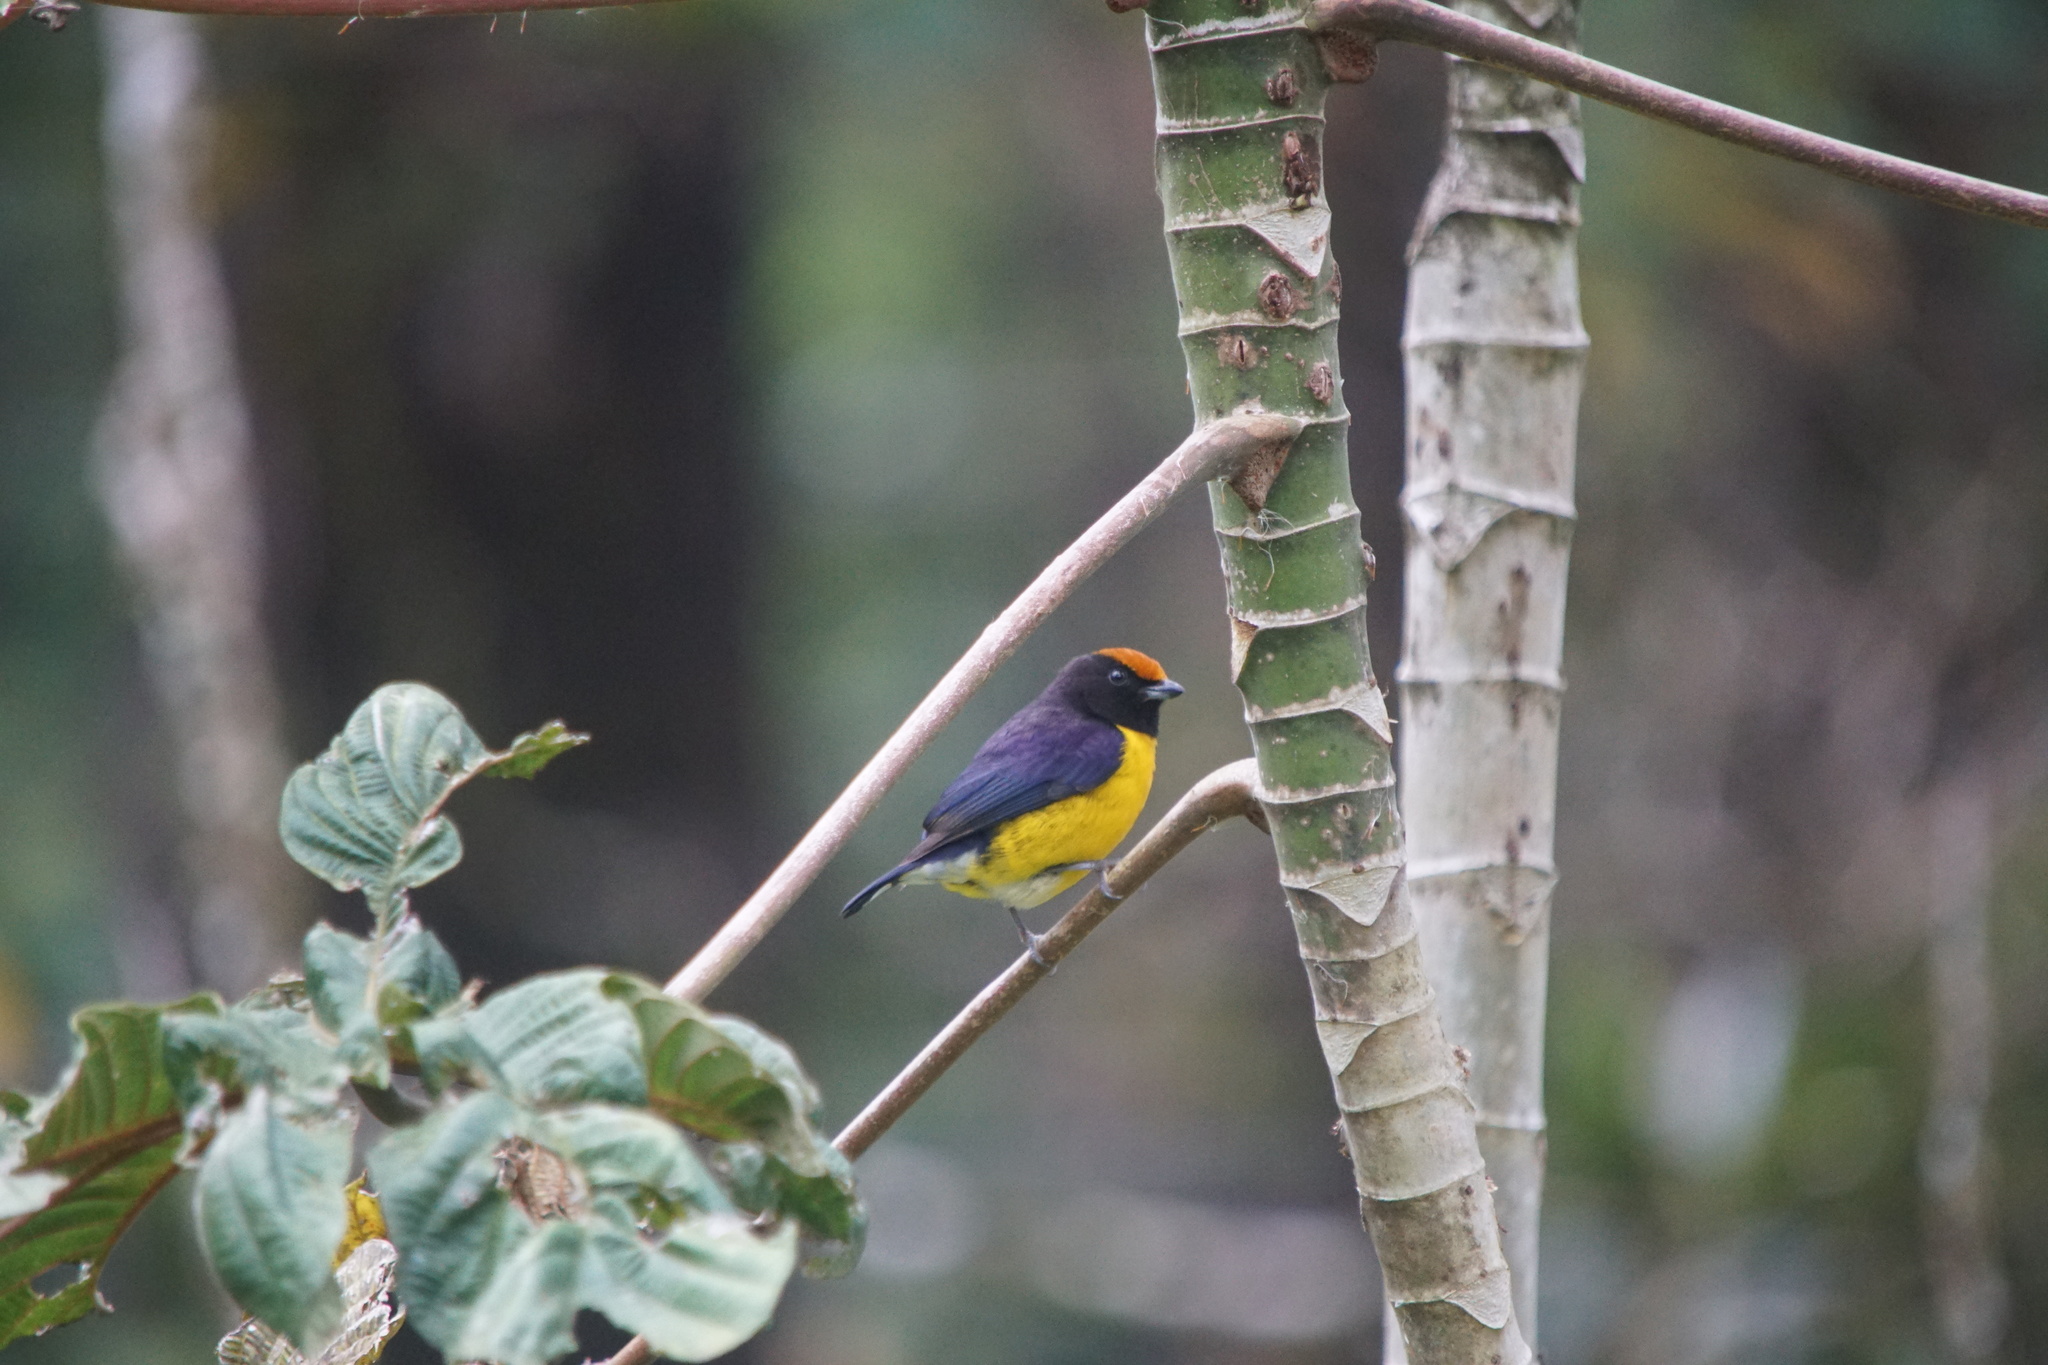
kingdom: Animalia
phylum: Chordata
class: Aves
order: Passeriformes
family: Fringillidae
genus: Euphonia
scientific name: Euphonia anneae
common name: Tawny-capped euphonia
